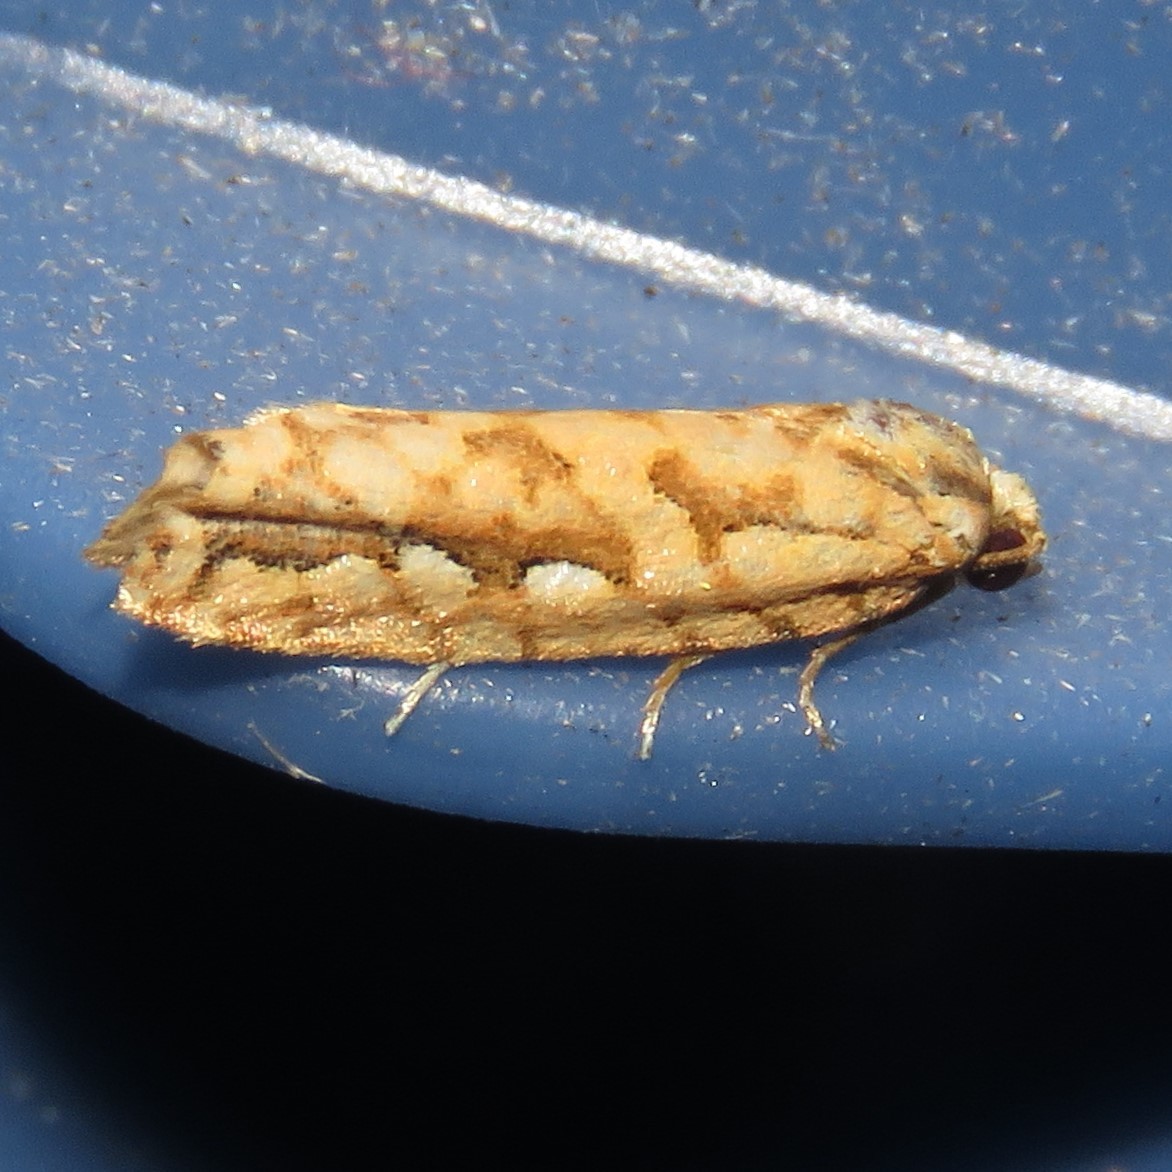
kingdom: Animalia
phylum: Arthropoda
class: Insecta
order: Lepidoptera
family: Tortricidae
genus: Diedra
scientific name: Diedra cockerellana
